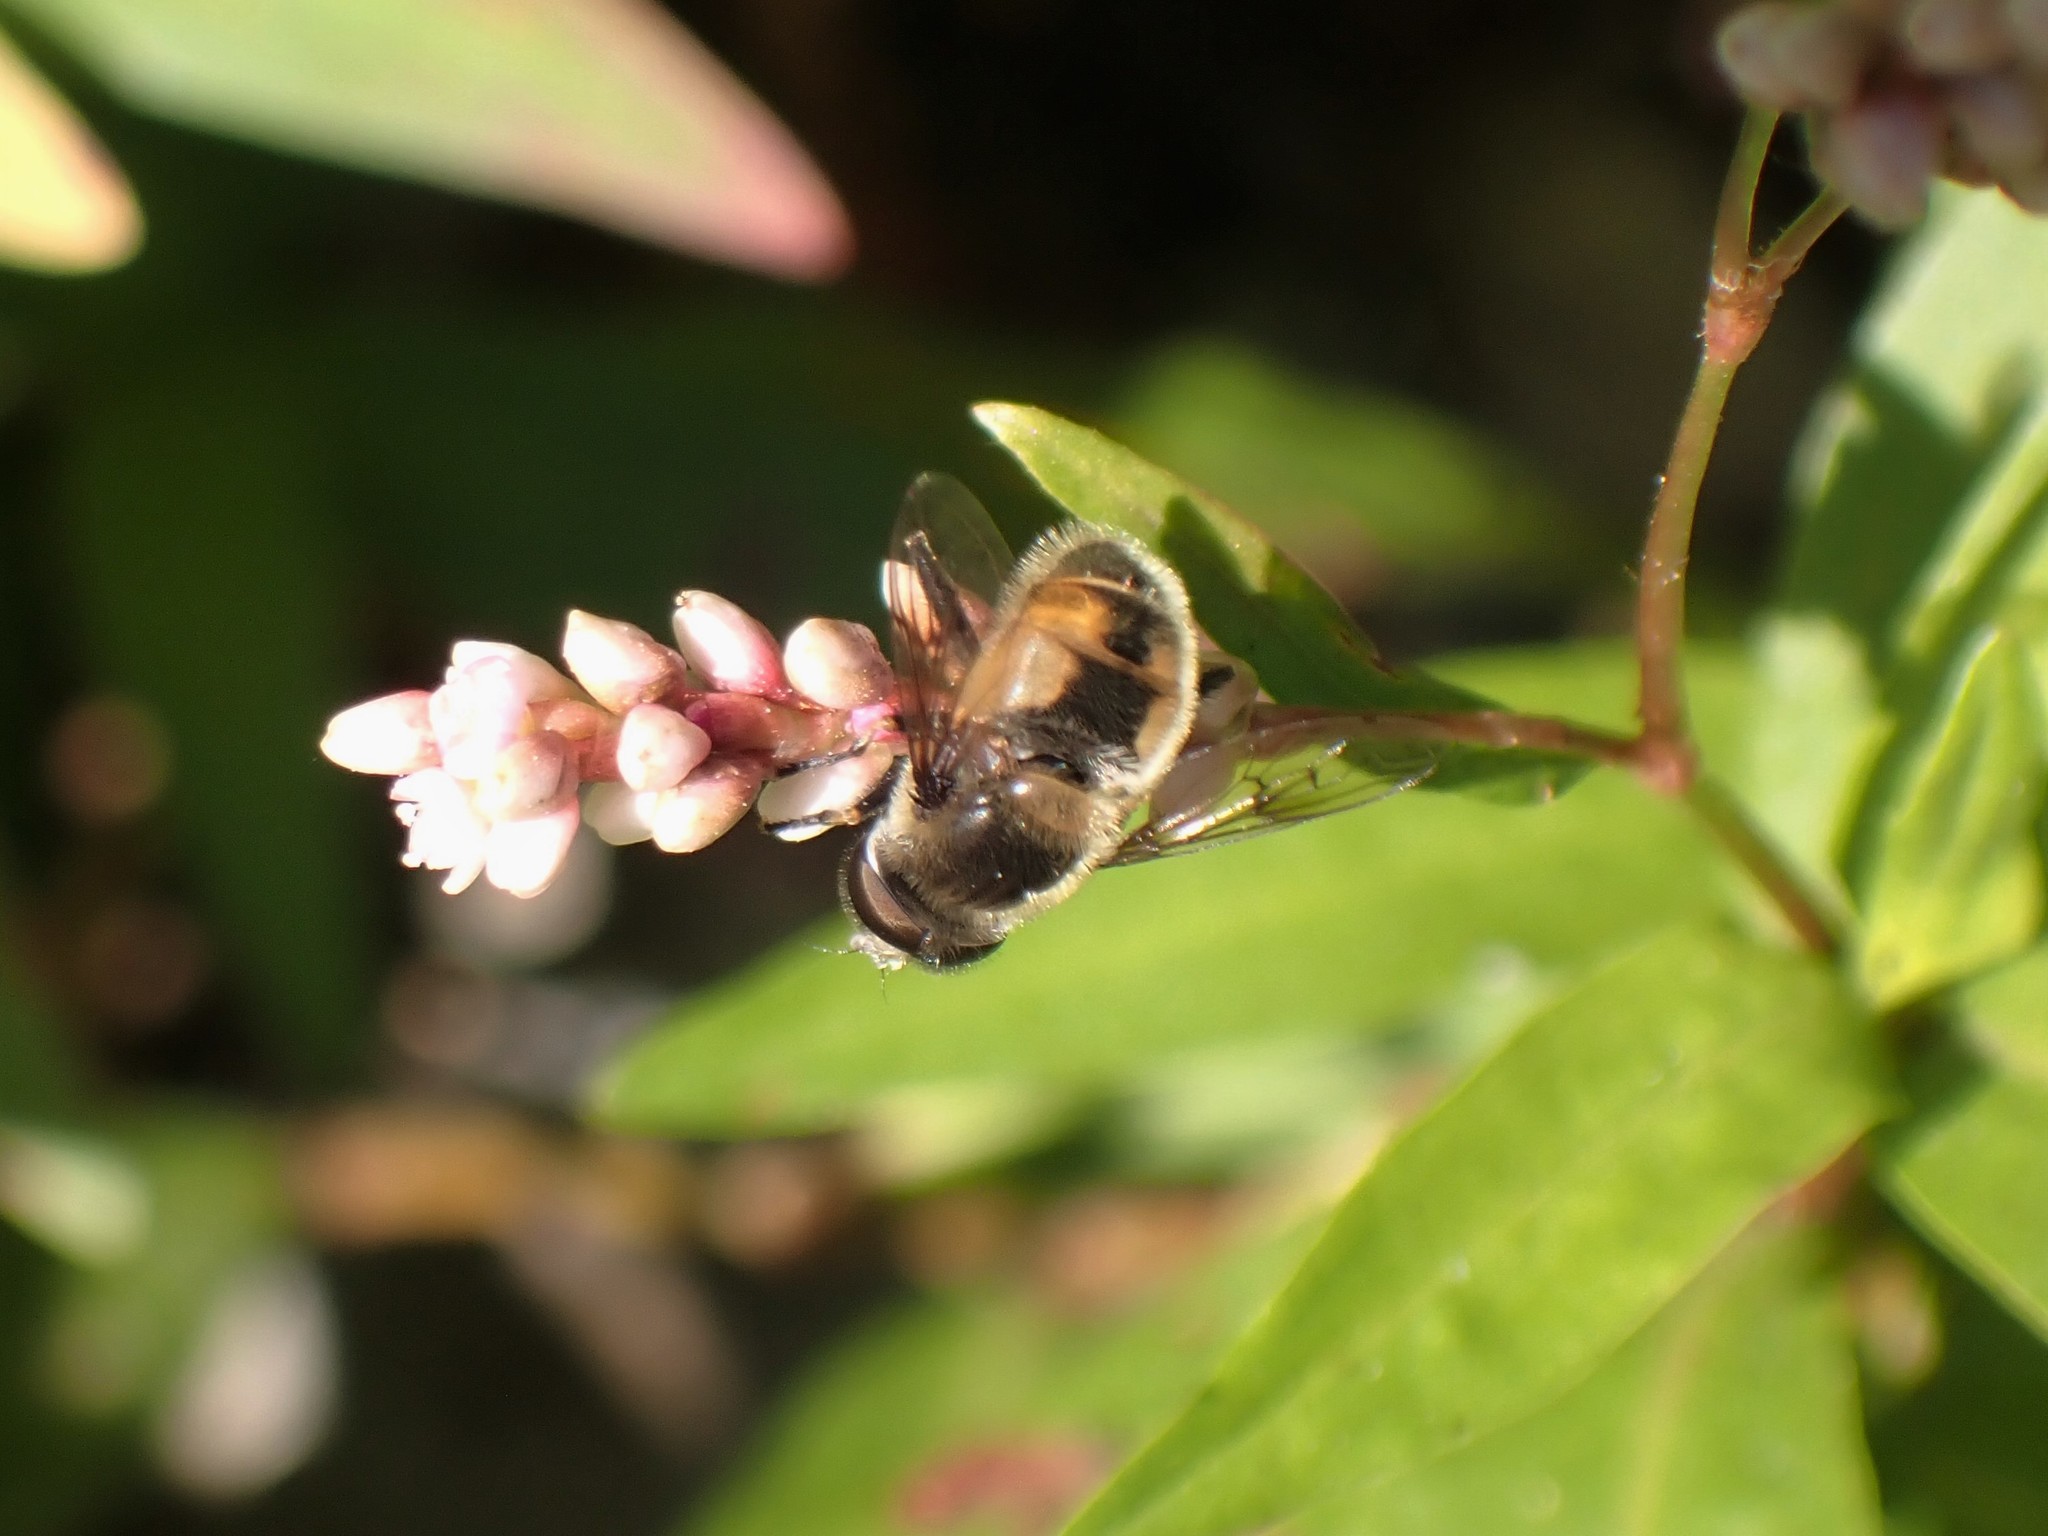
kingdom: Animalia
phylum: Arthropoda
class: Insecta
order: Diptera
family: Syrphidae
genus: Eristalis
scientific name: Eristalis anthophorina
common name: Orange-spotted drone fly
